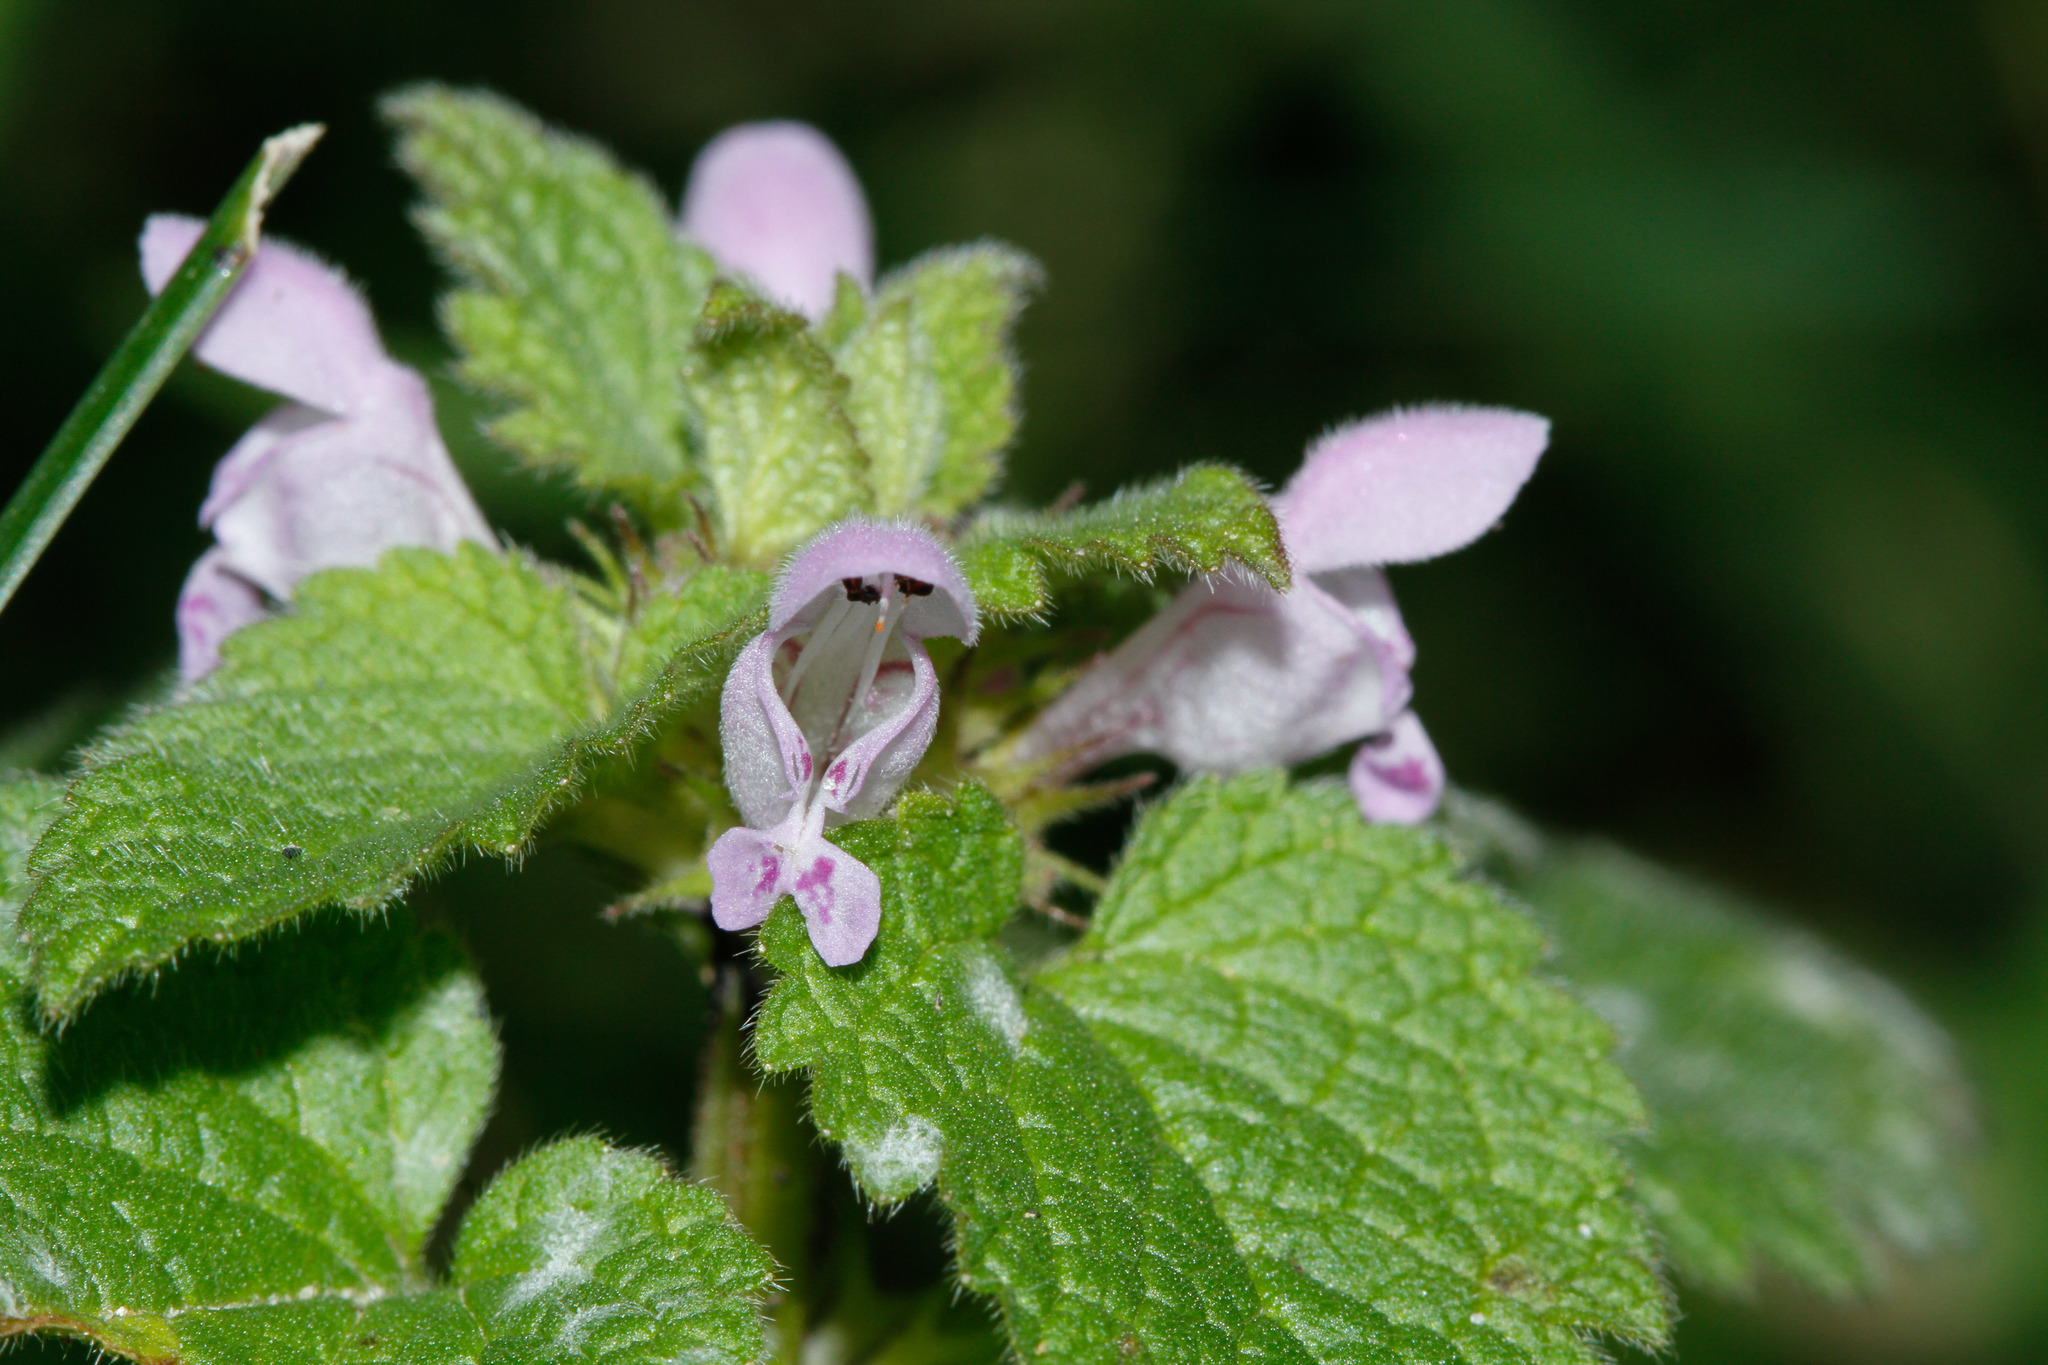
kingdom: Plantae
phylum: Tracheophyta
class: Magnoliopsida
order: Lamiales
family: Lamiaceae
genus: Lamium
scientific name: Lamium purpureum
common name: Red dead-nettle
